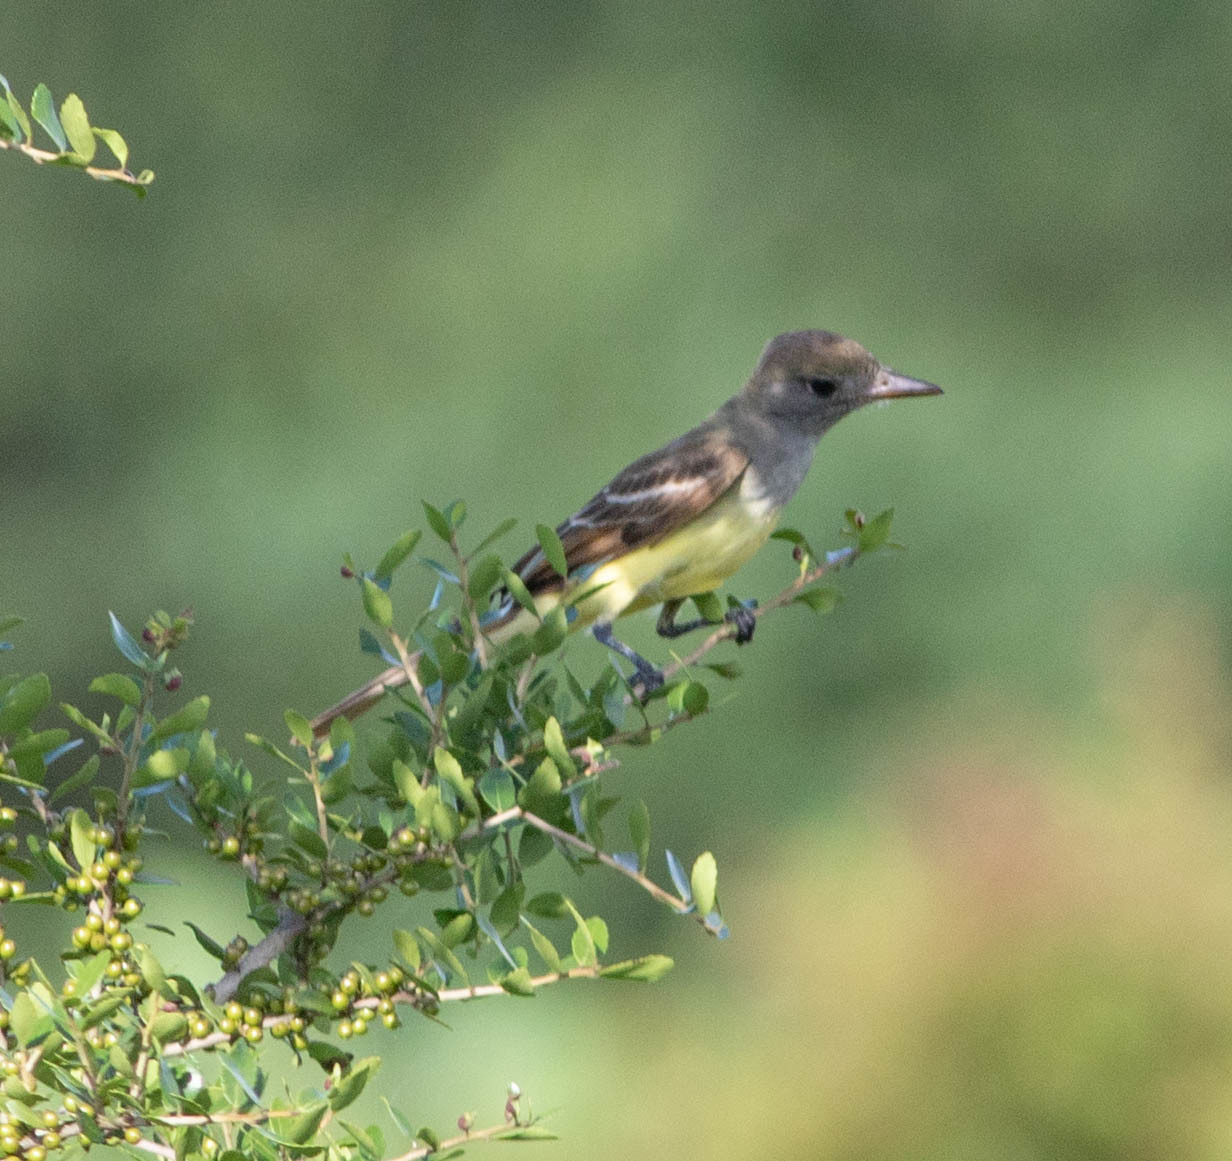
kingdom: Animalia
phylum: Chordata
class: Aves
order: Passeriformes
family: Tyrannidae
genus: Myiarchus
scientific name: Myiarchus crinitus
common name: Great crested flycatcher
